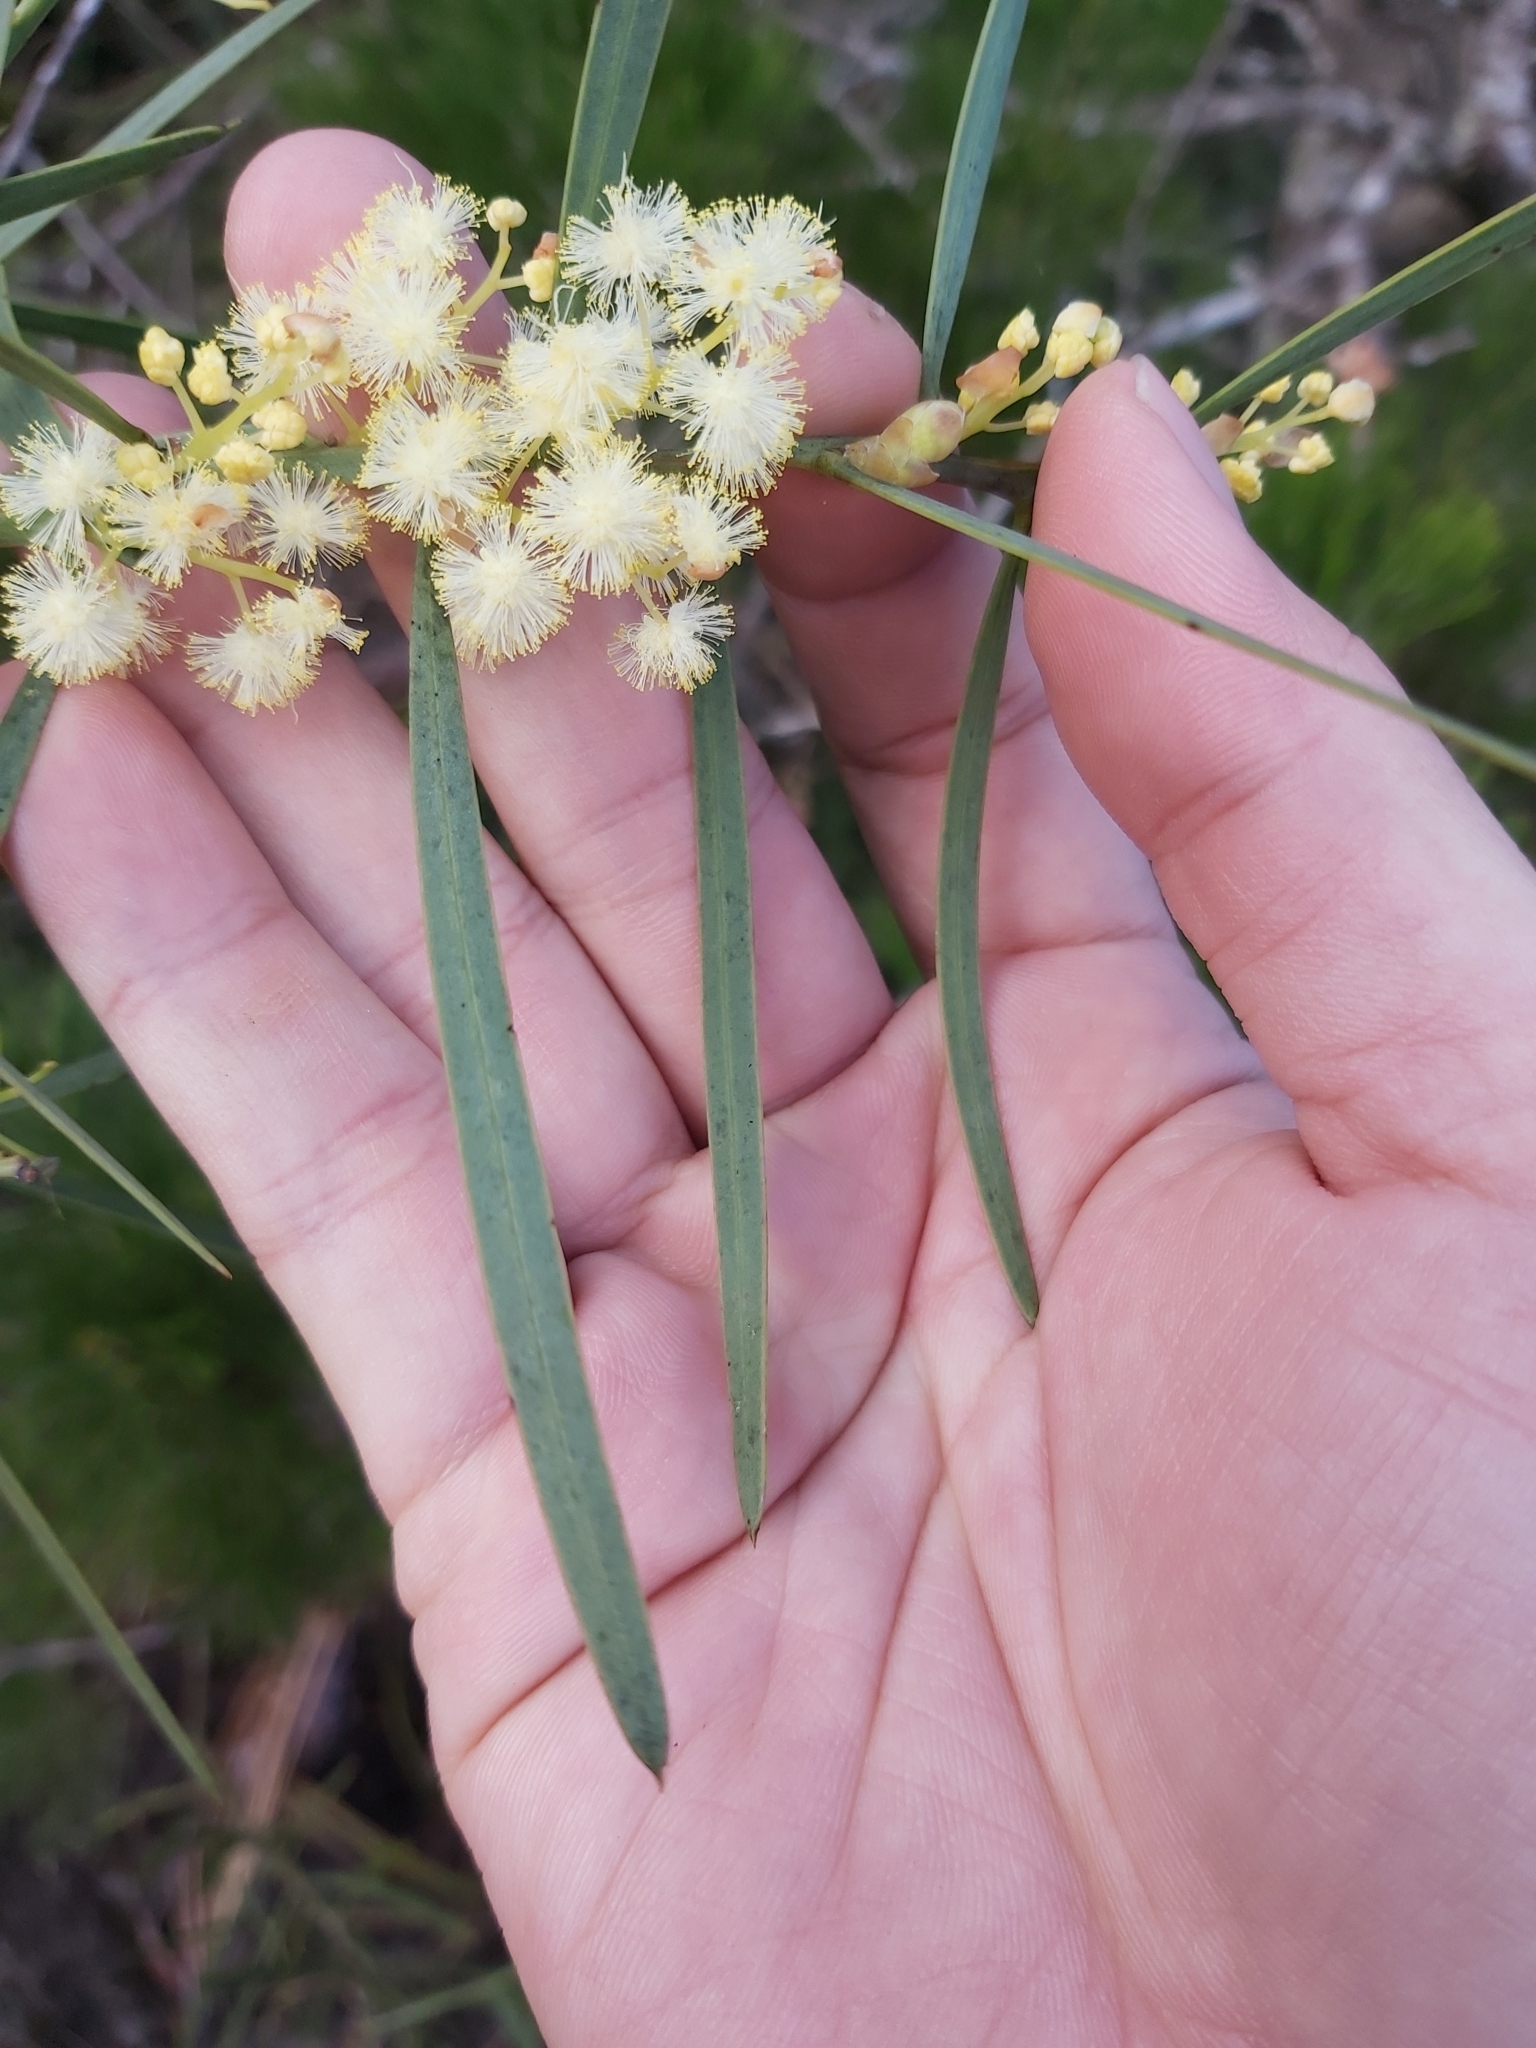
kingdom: Plantae
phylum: Tracheophyta
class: Magnoliopsida
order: Fabales
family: Fabaceae
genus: Acacia
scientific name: Acacia suaveolens
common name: Sweet acacia
